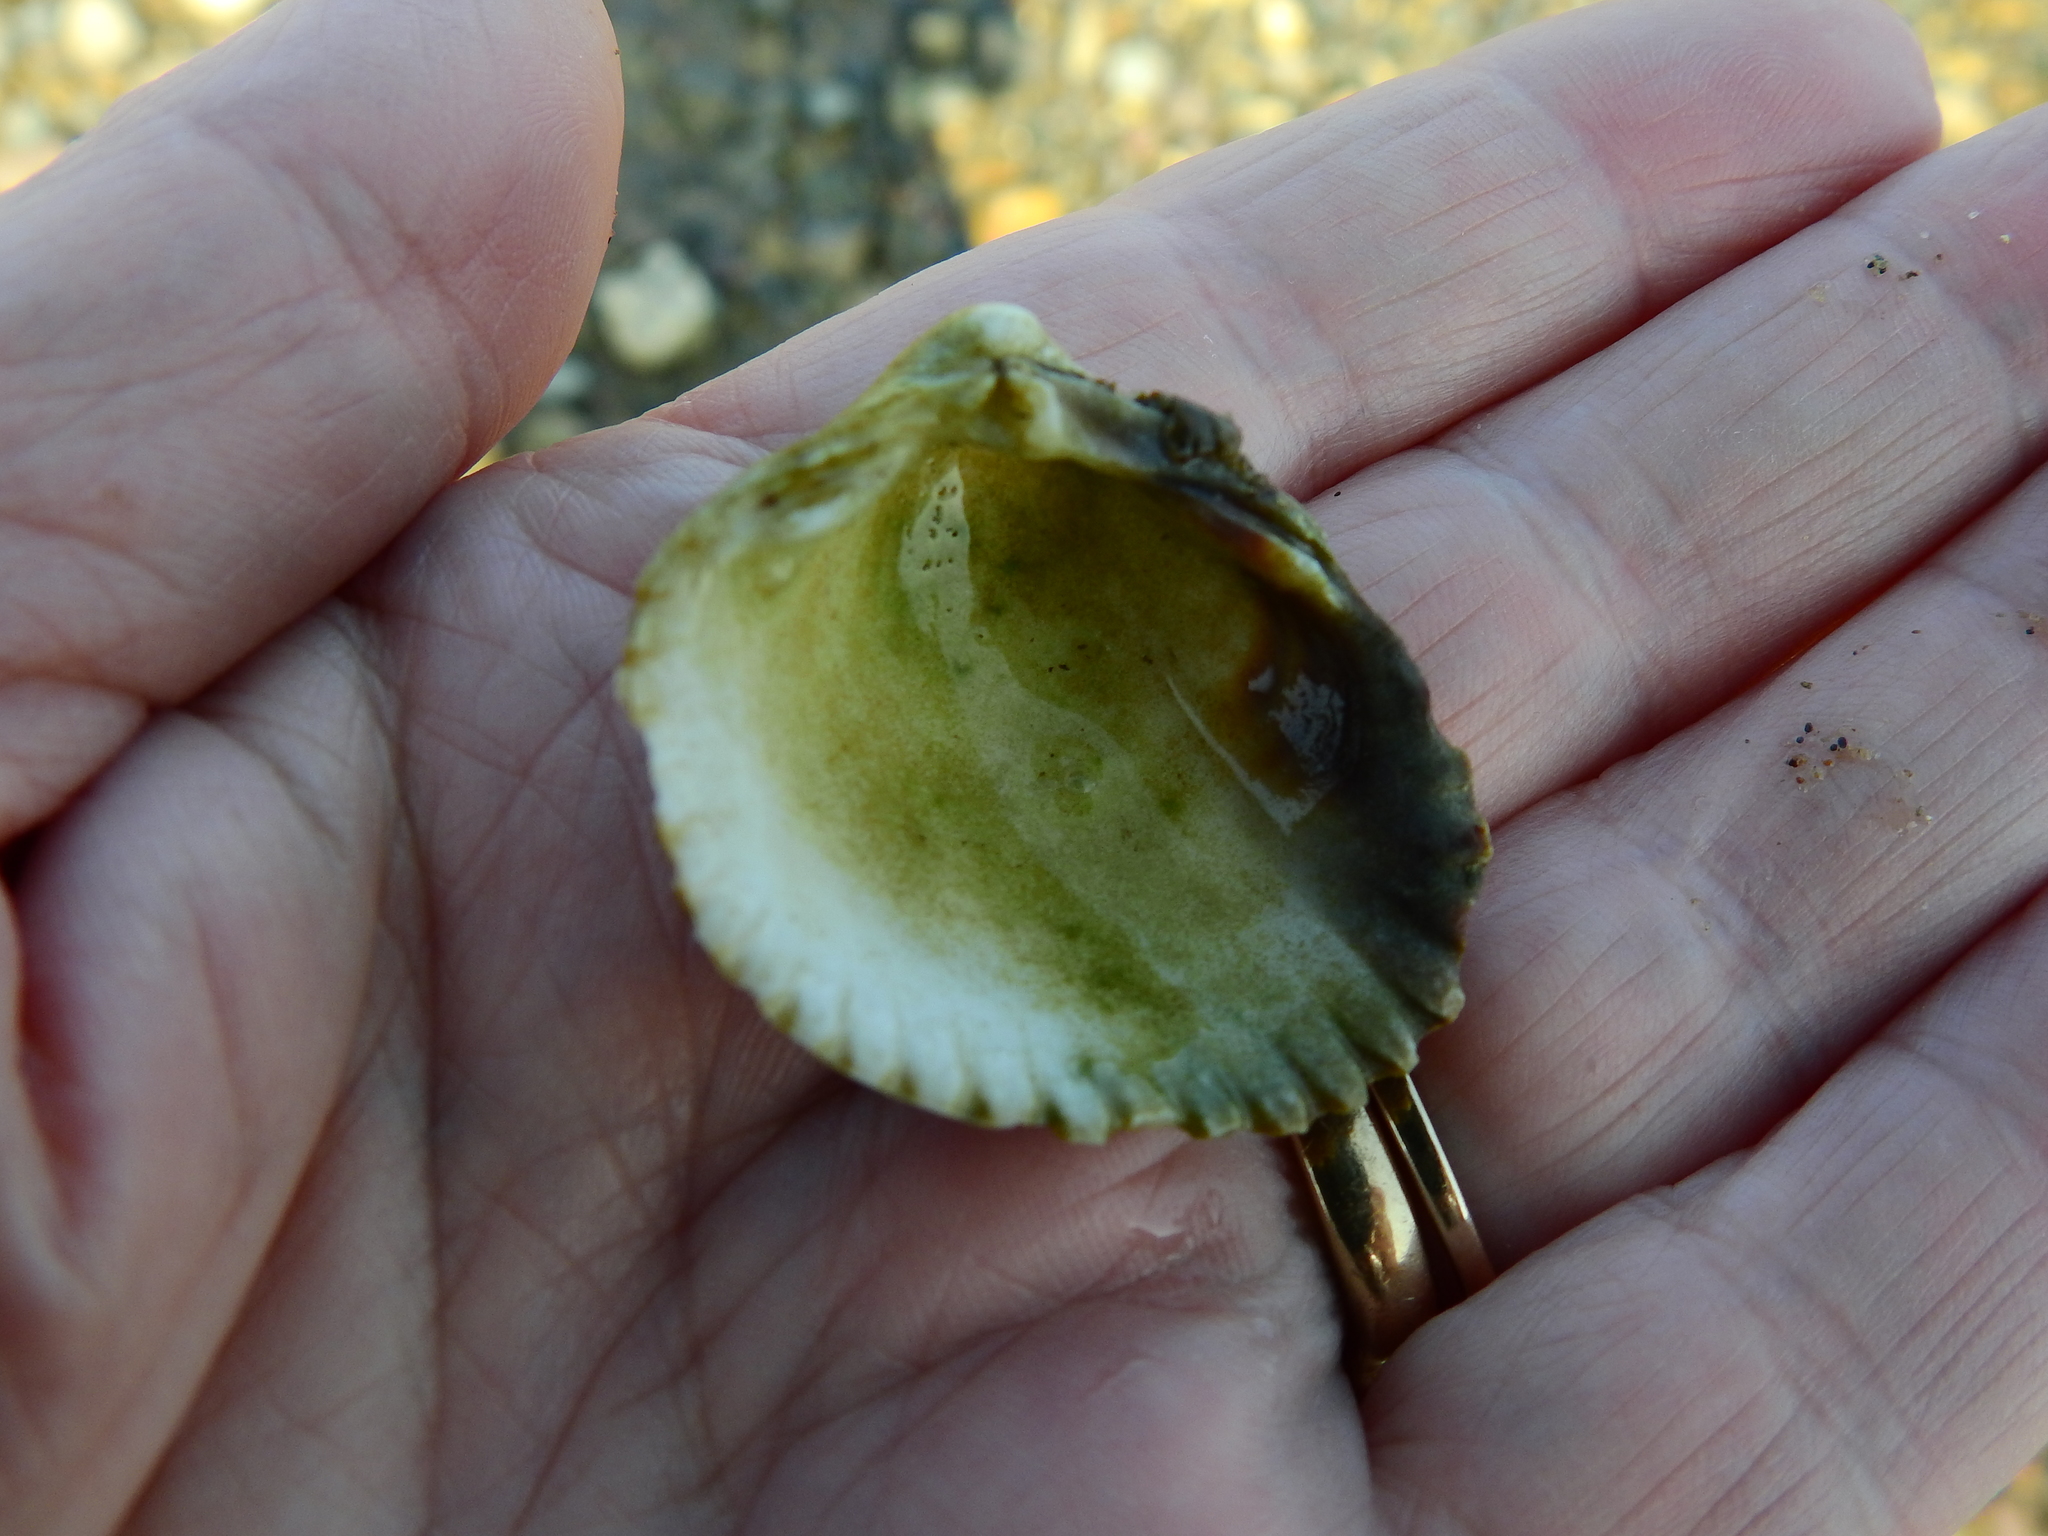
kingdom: Animalia
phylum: Mollusca
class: Bivalvia
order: Cardiida
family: Cardiidae
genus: Cerastoderma
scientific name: Cerastoderma edule
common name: Common cockle
